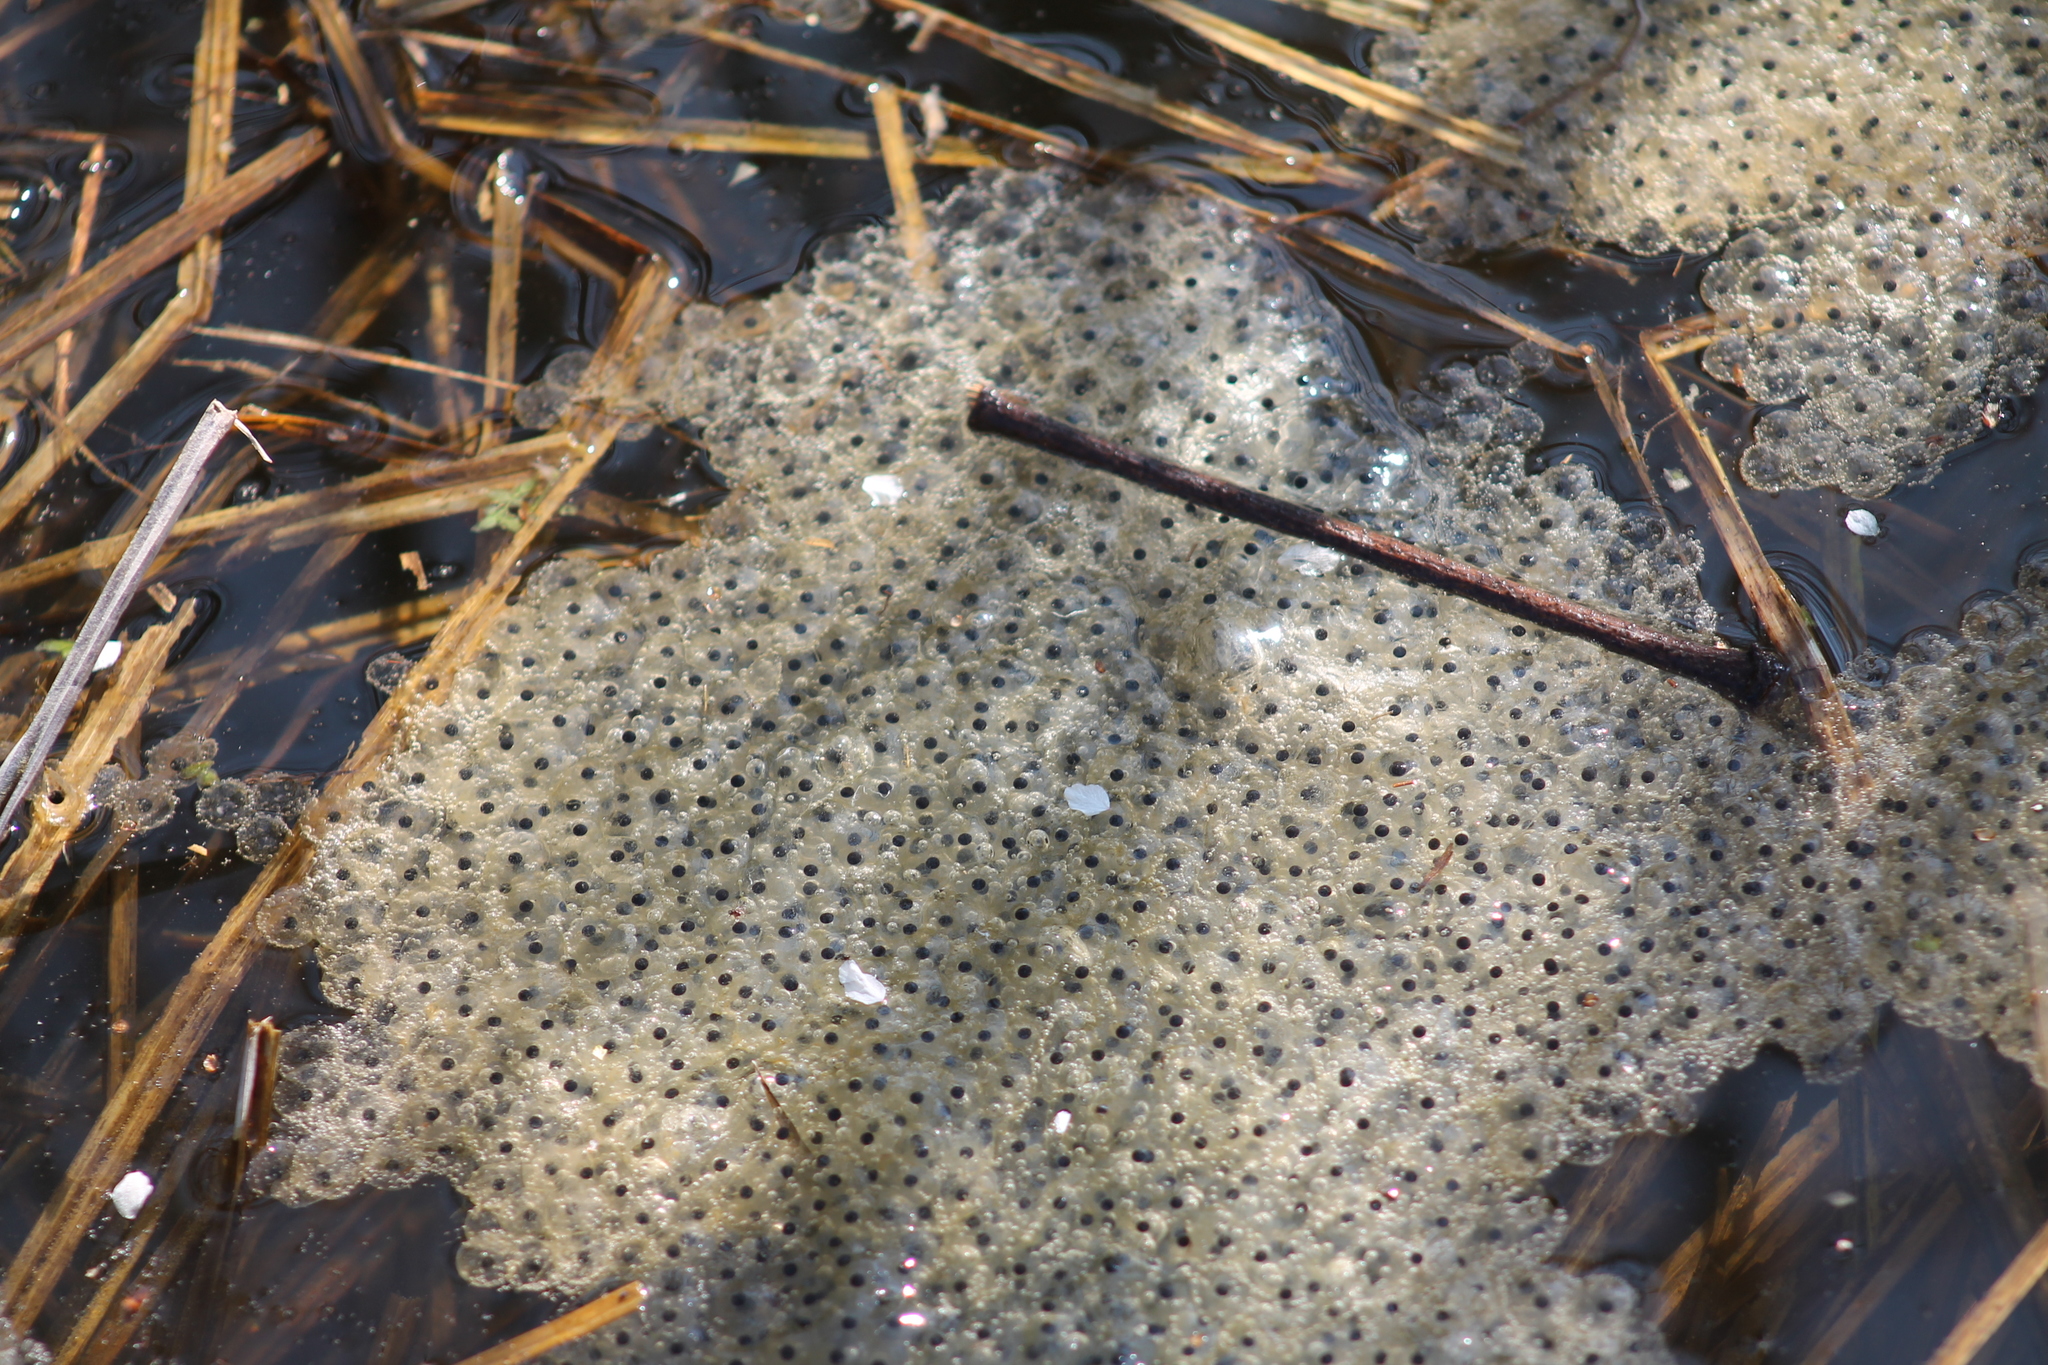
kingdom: Animalia
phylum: Chordata
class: Amphibia
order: Anura
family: Ranidae
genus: Rana
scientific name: Rana temporaria
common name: Common frog
